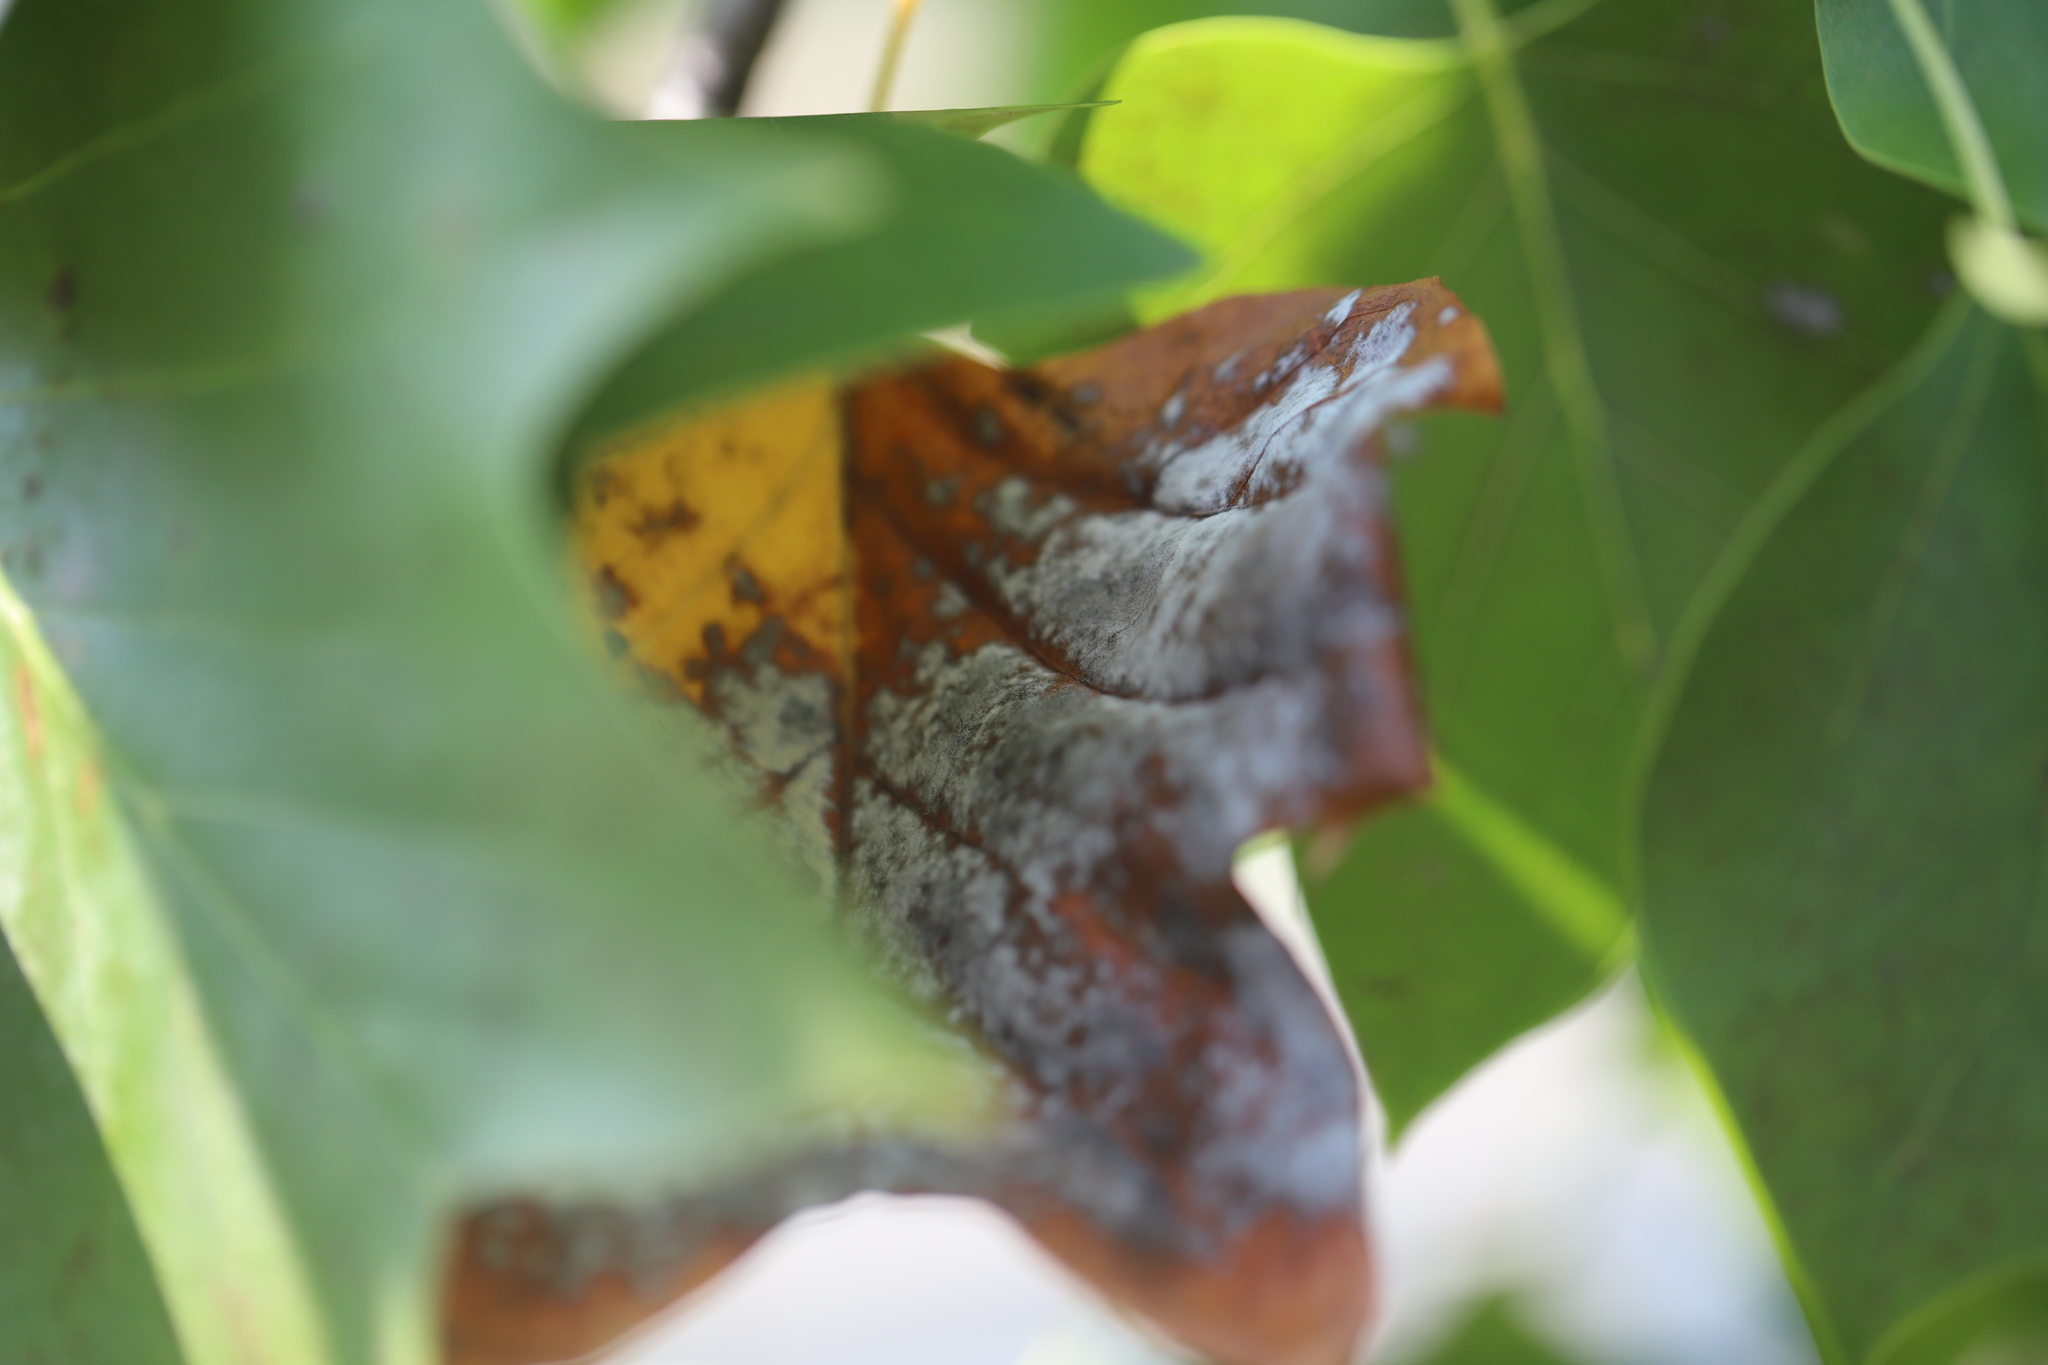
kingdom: Fungi
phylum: Ascomycota
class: Leotiomycetes
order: Helotiales
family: Erysiphaceae
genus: Erysiphe
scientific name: Erysiphe liriodendri
